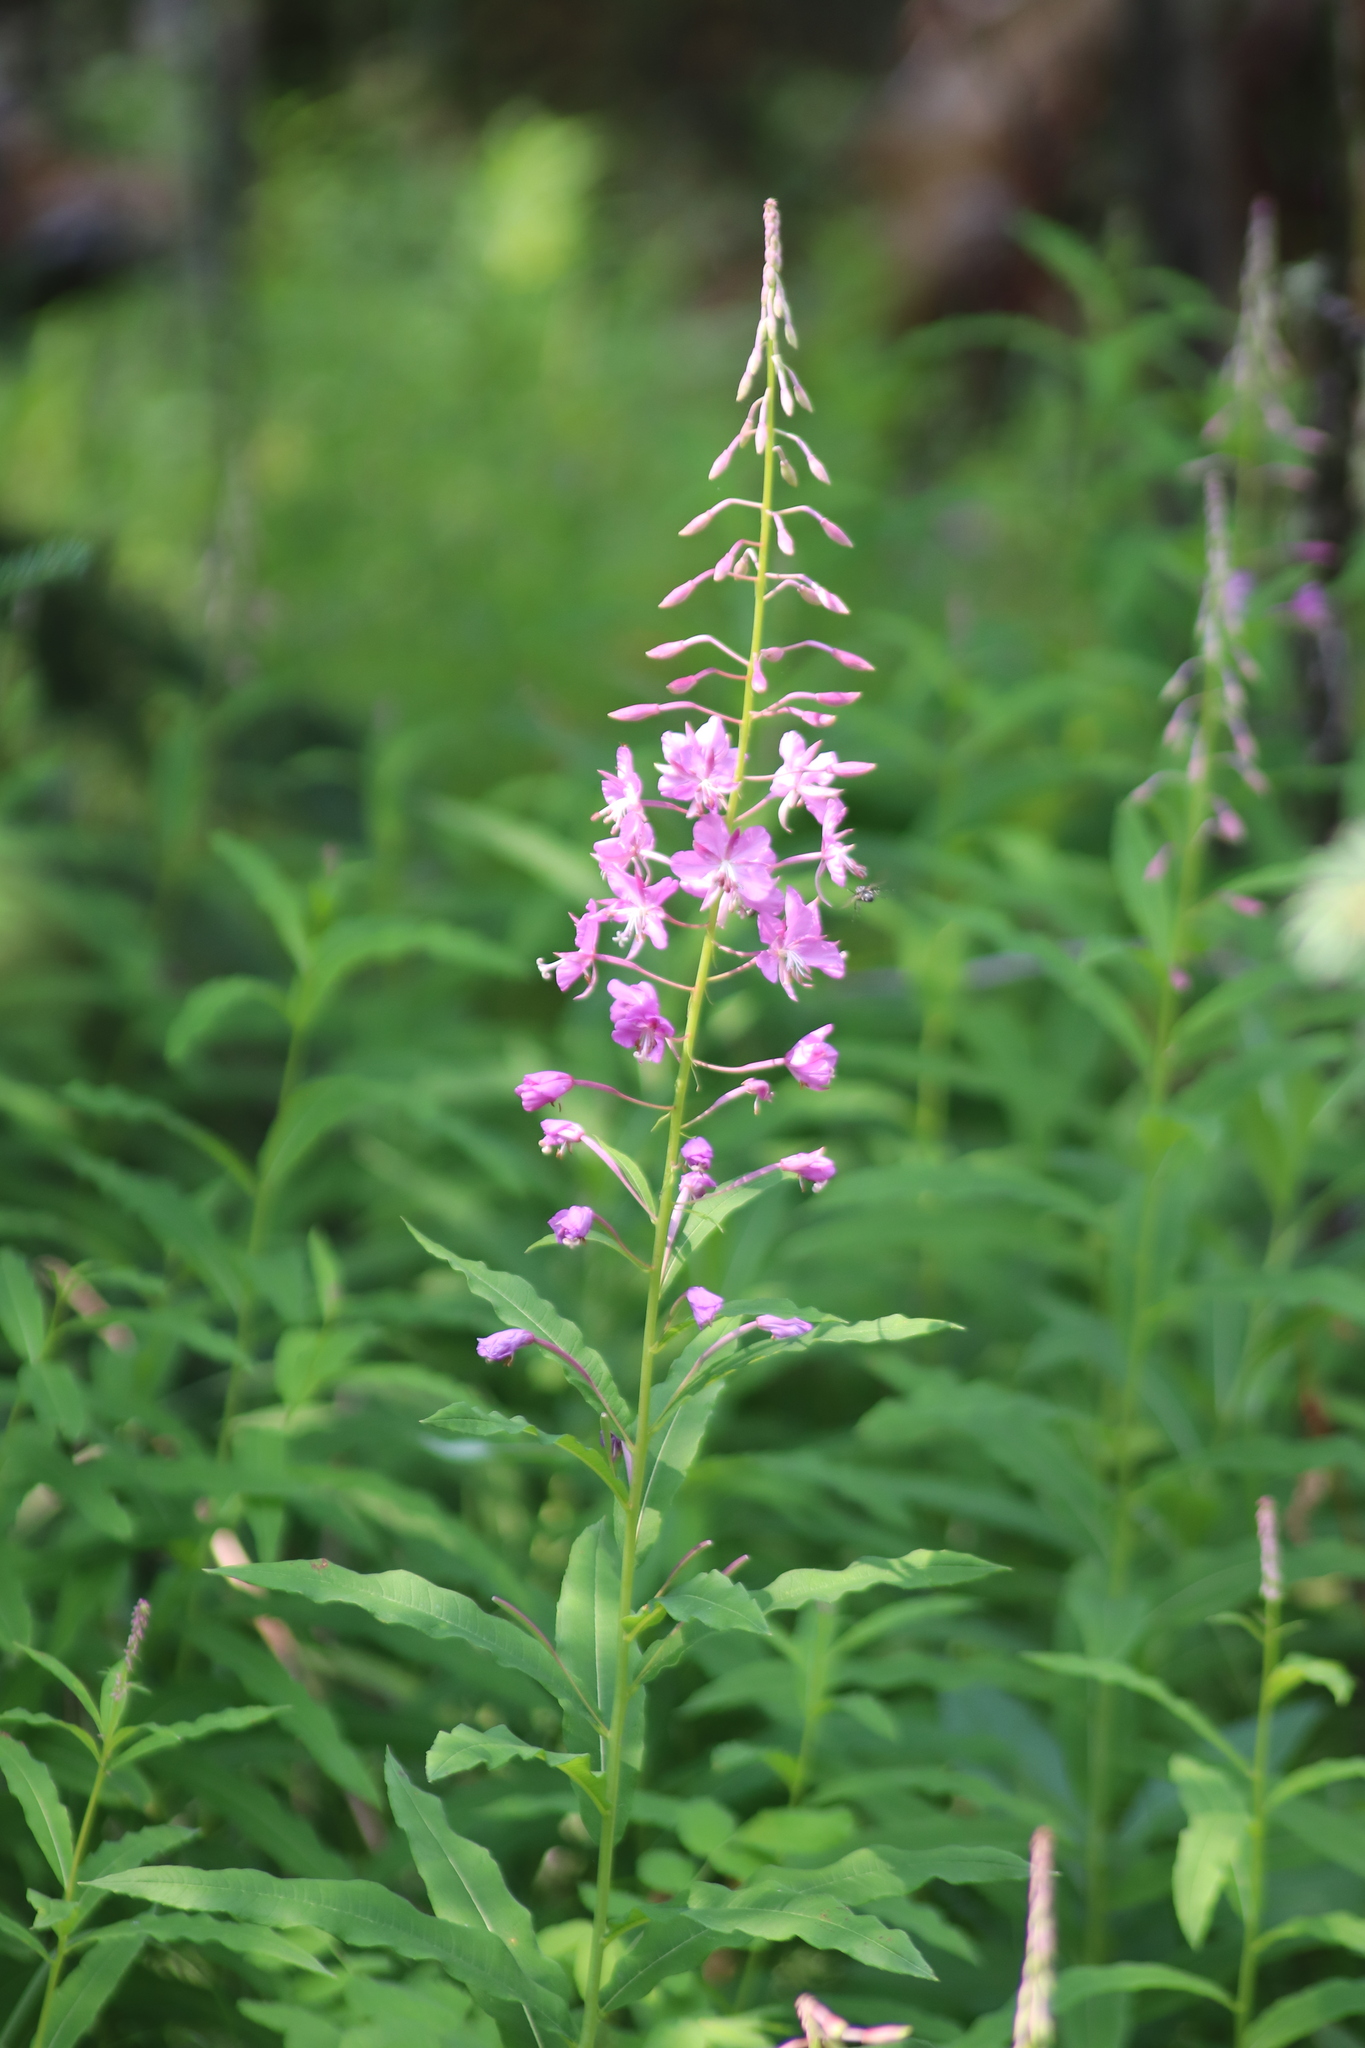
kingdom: Plantae
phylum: Tracheophyta
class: Magnoliopsida
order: Myrtales
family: Onagraceae
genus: Chamaenerion
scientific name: Chamaenerion angustifolium
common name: Fireweed
